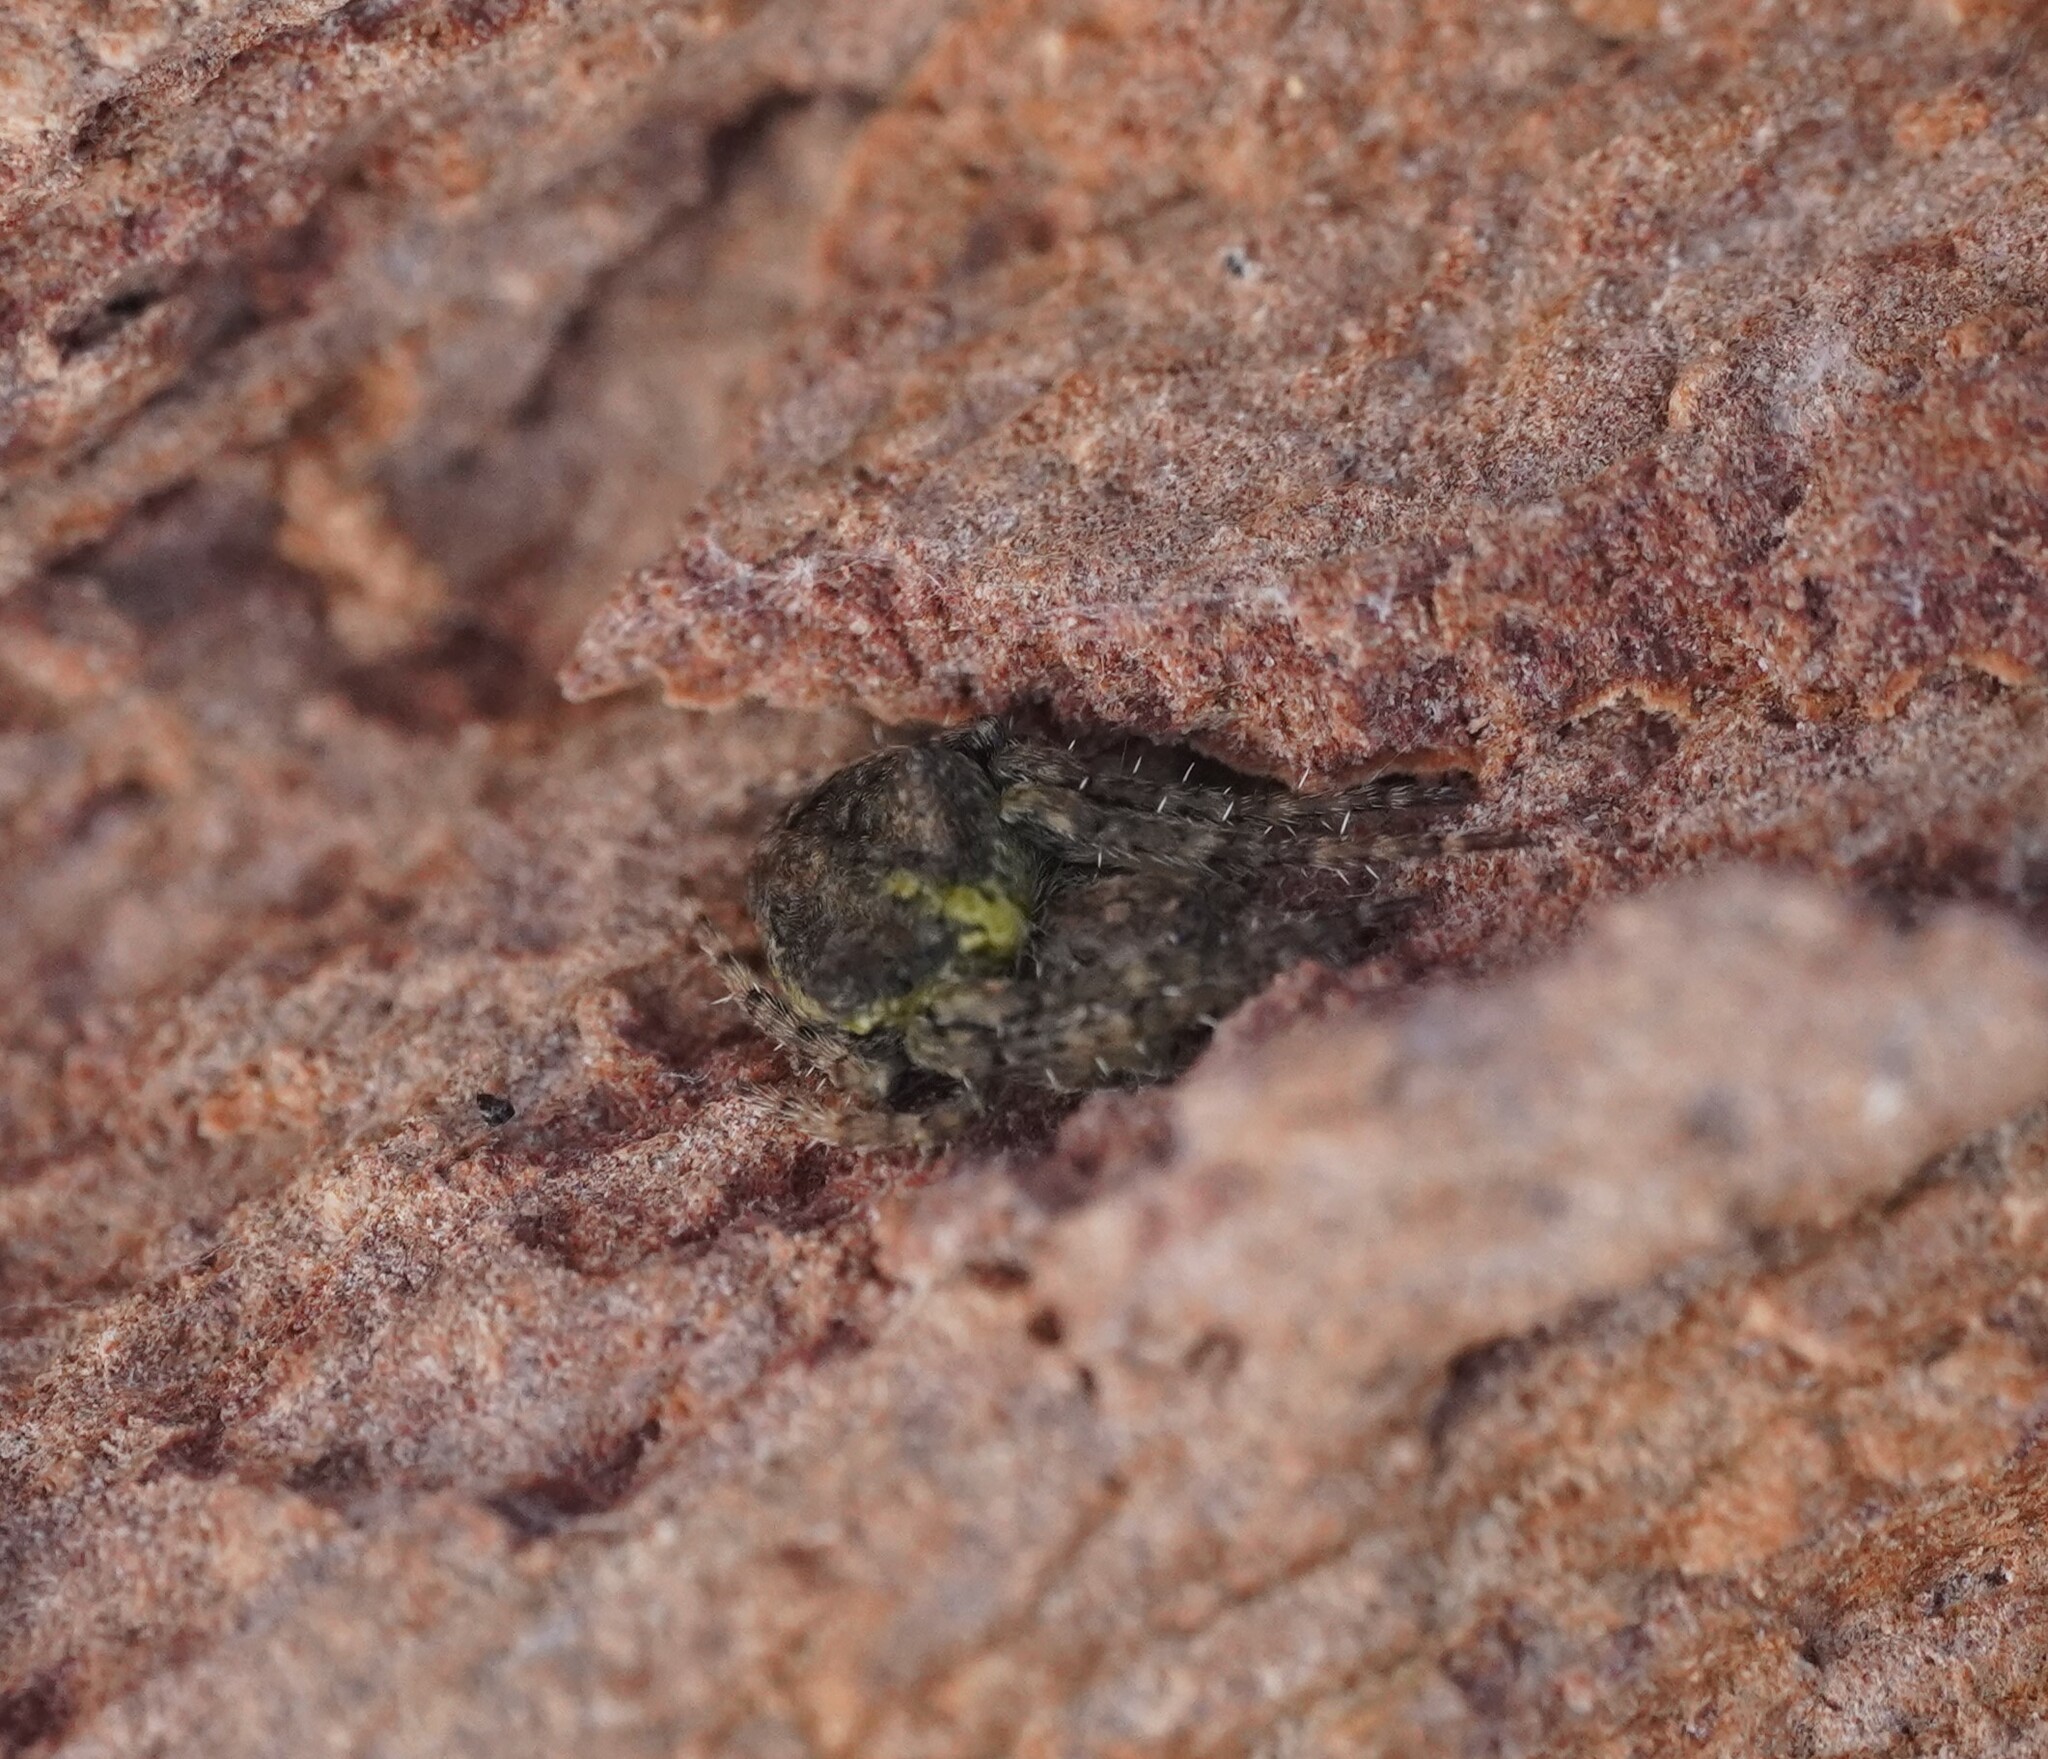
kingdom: Animalia
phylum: Arthropoda
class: Arachnida
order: Araneae
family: Araneidae
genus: Gibbaranea
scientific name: Gibbaranea gibbosa
